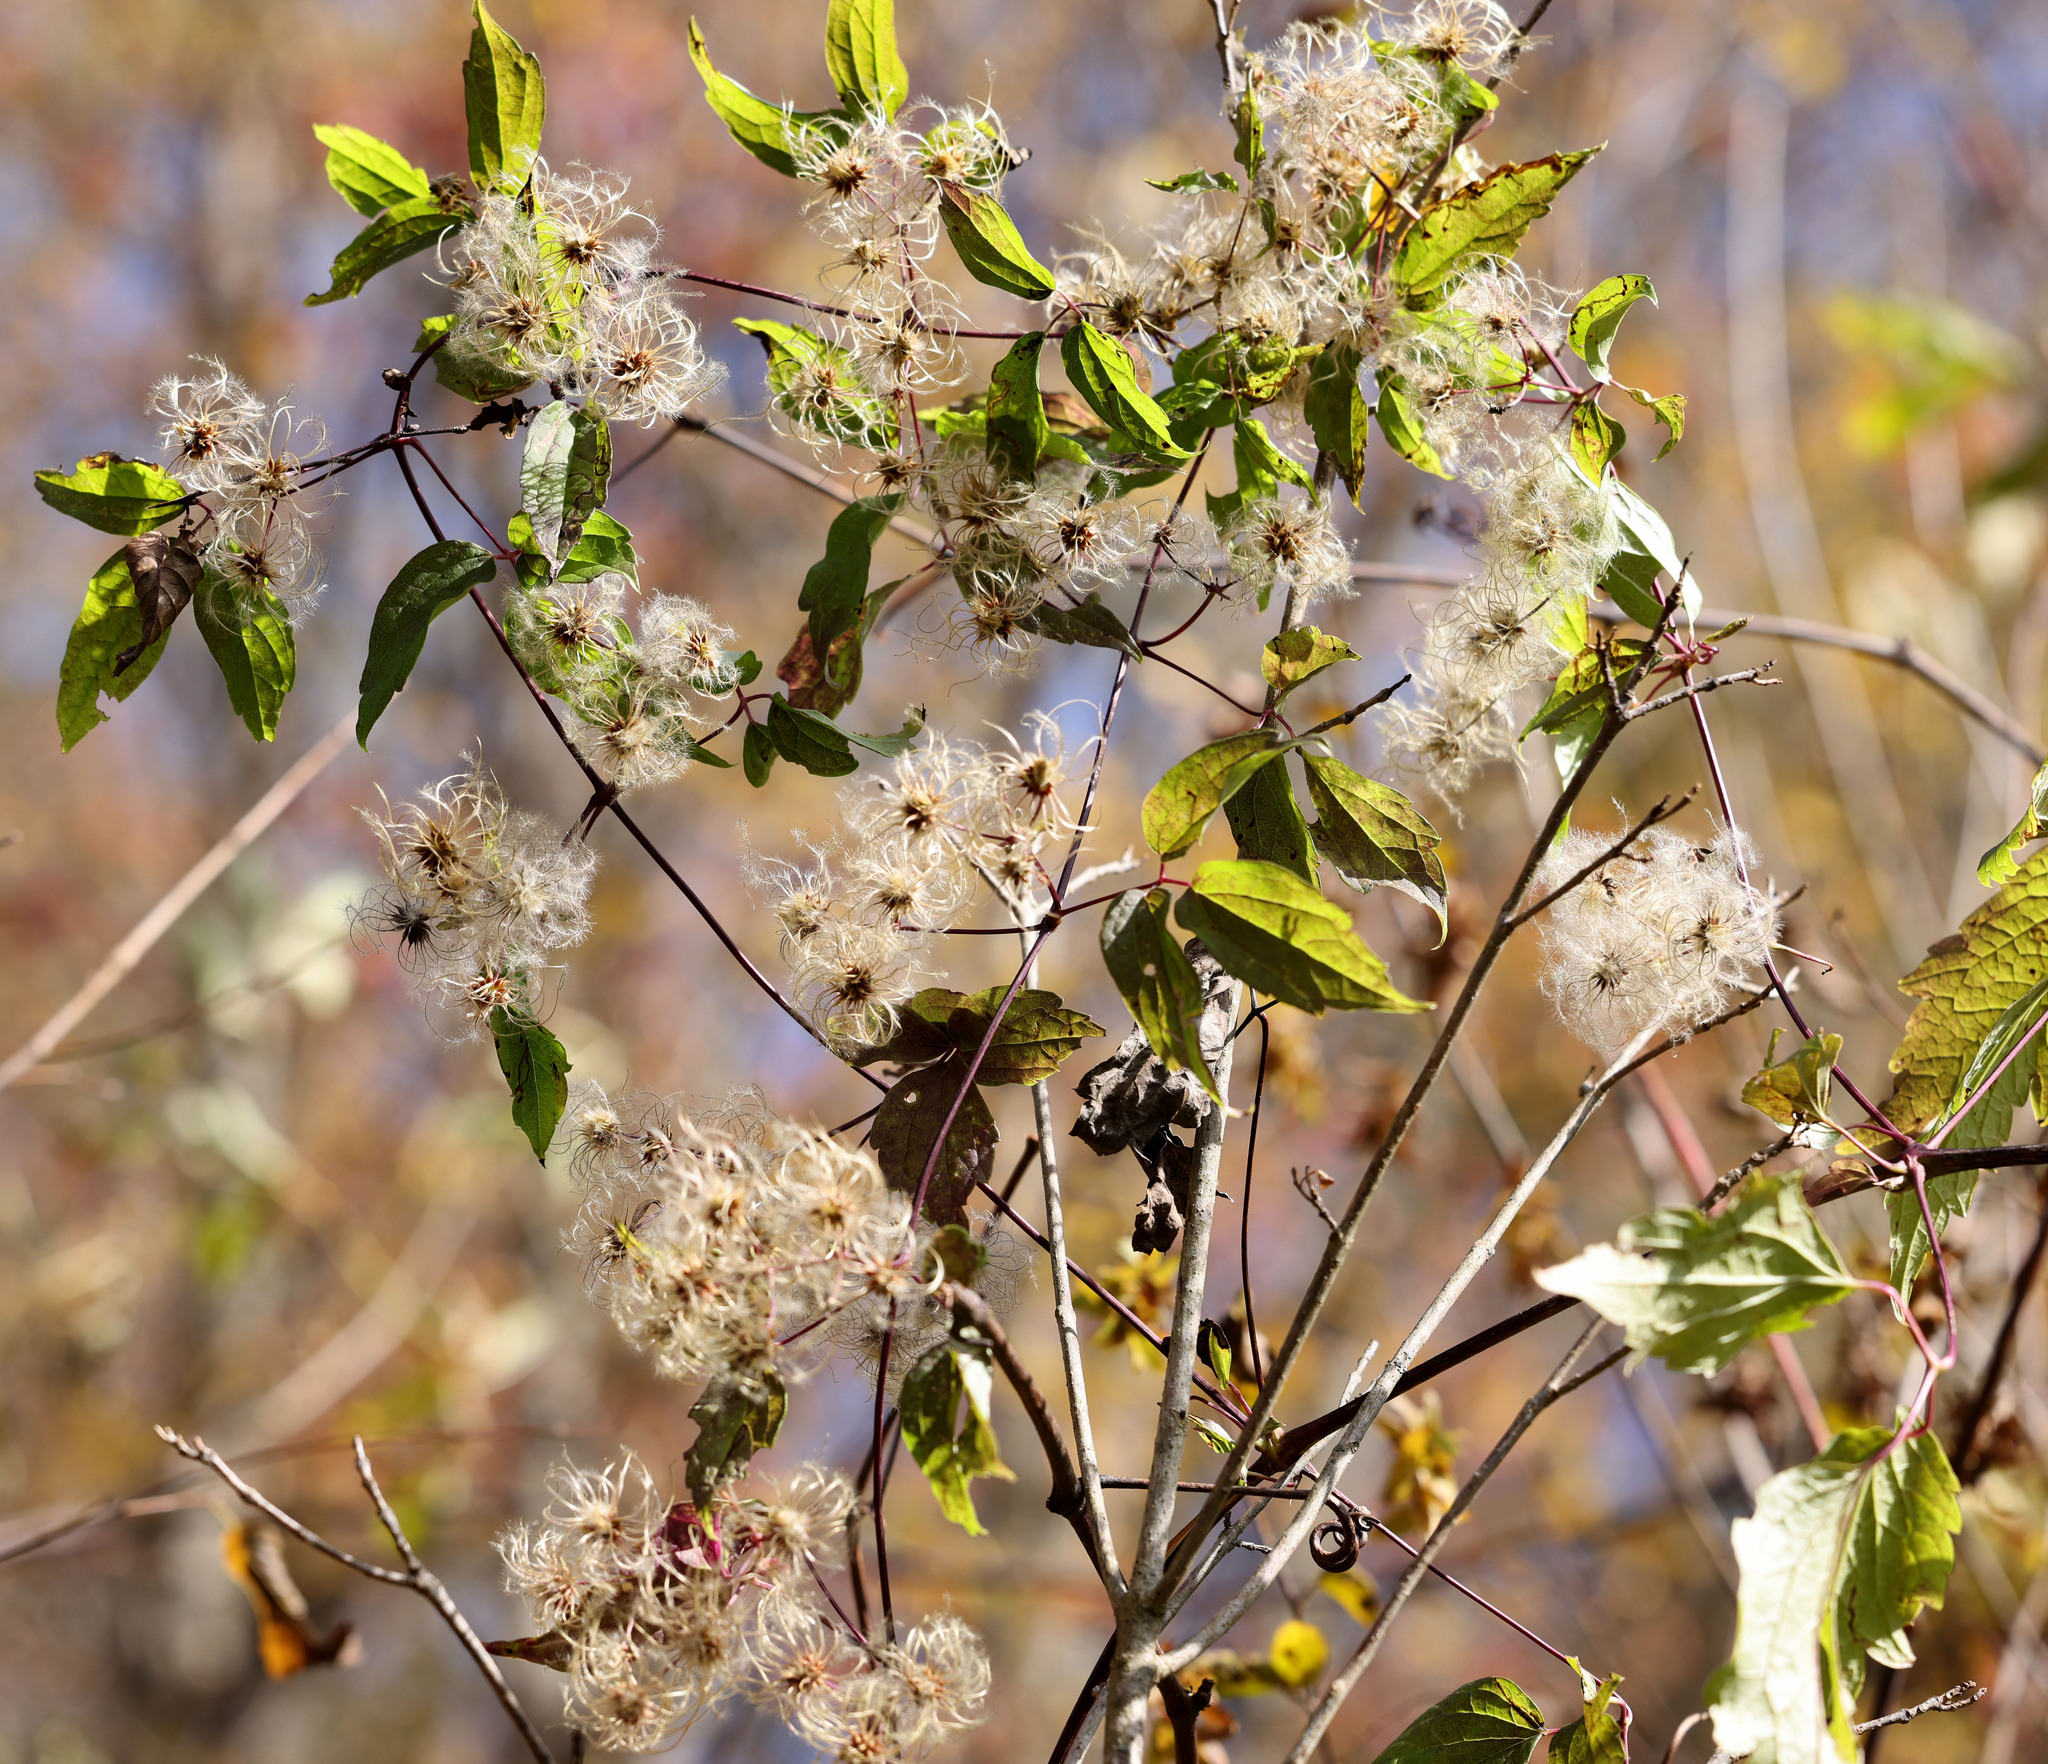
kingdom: Plantae
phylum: Tracheophyta
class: Magnoliopsida
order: Ranunculales
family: Ranunculaceae
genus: Clematis
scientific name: Clematis virginiana
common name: Virgin's-bower
